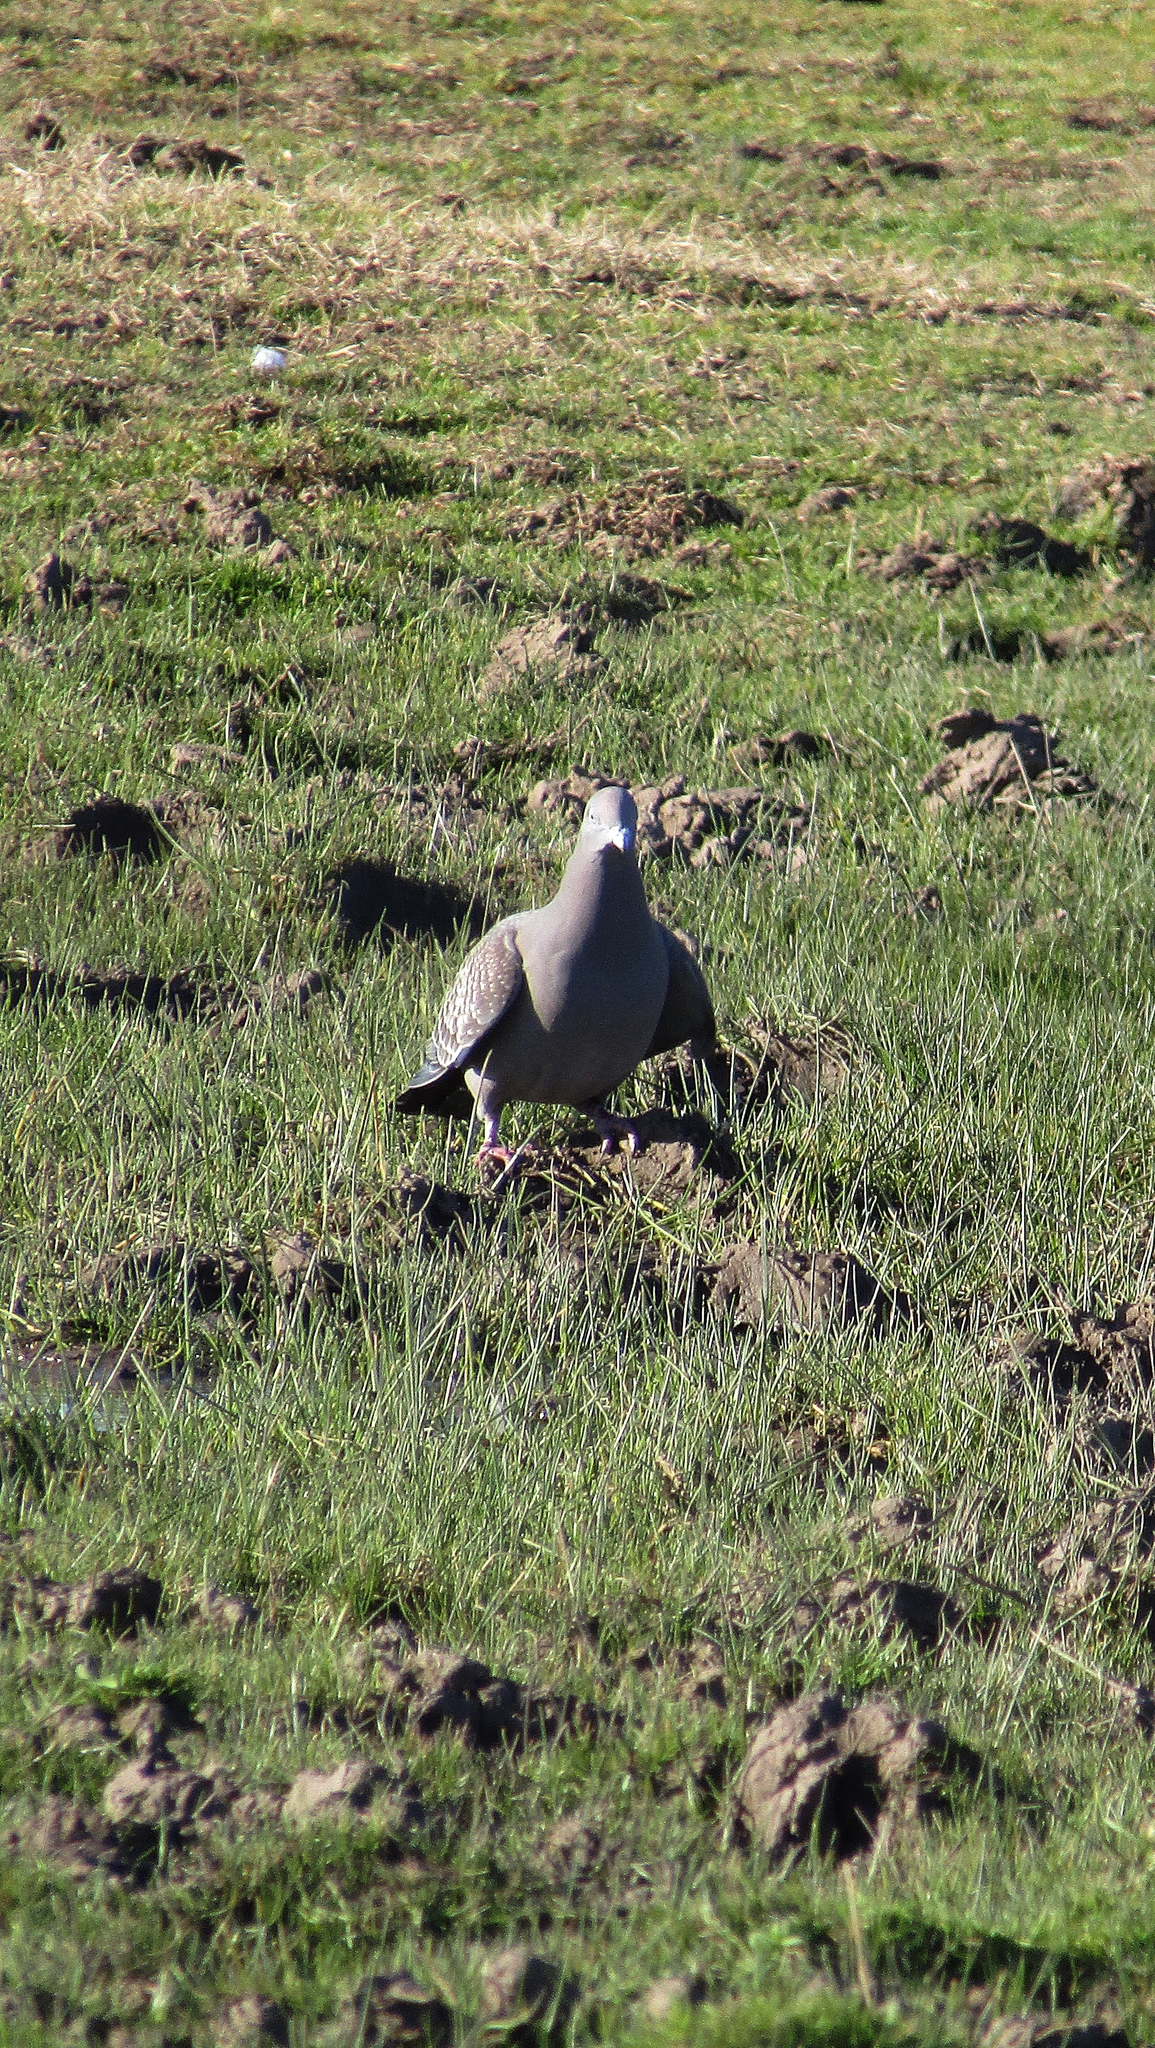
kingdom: Animalia
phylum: Chordata
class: Aves
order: Columbiformes
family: Columbidae
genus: Patagioenas
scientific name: Patagioenas maculosa
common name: Spot-winged pigeon
